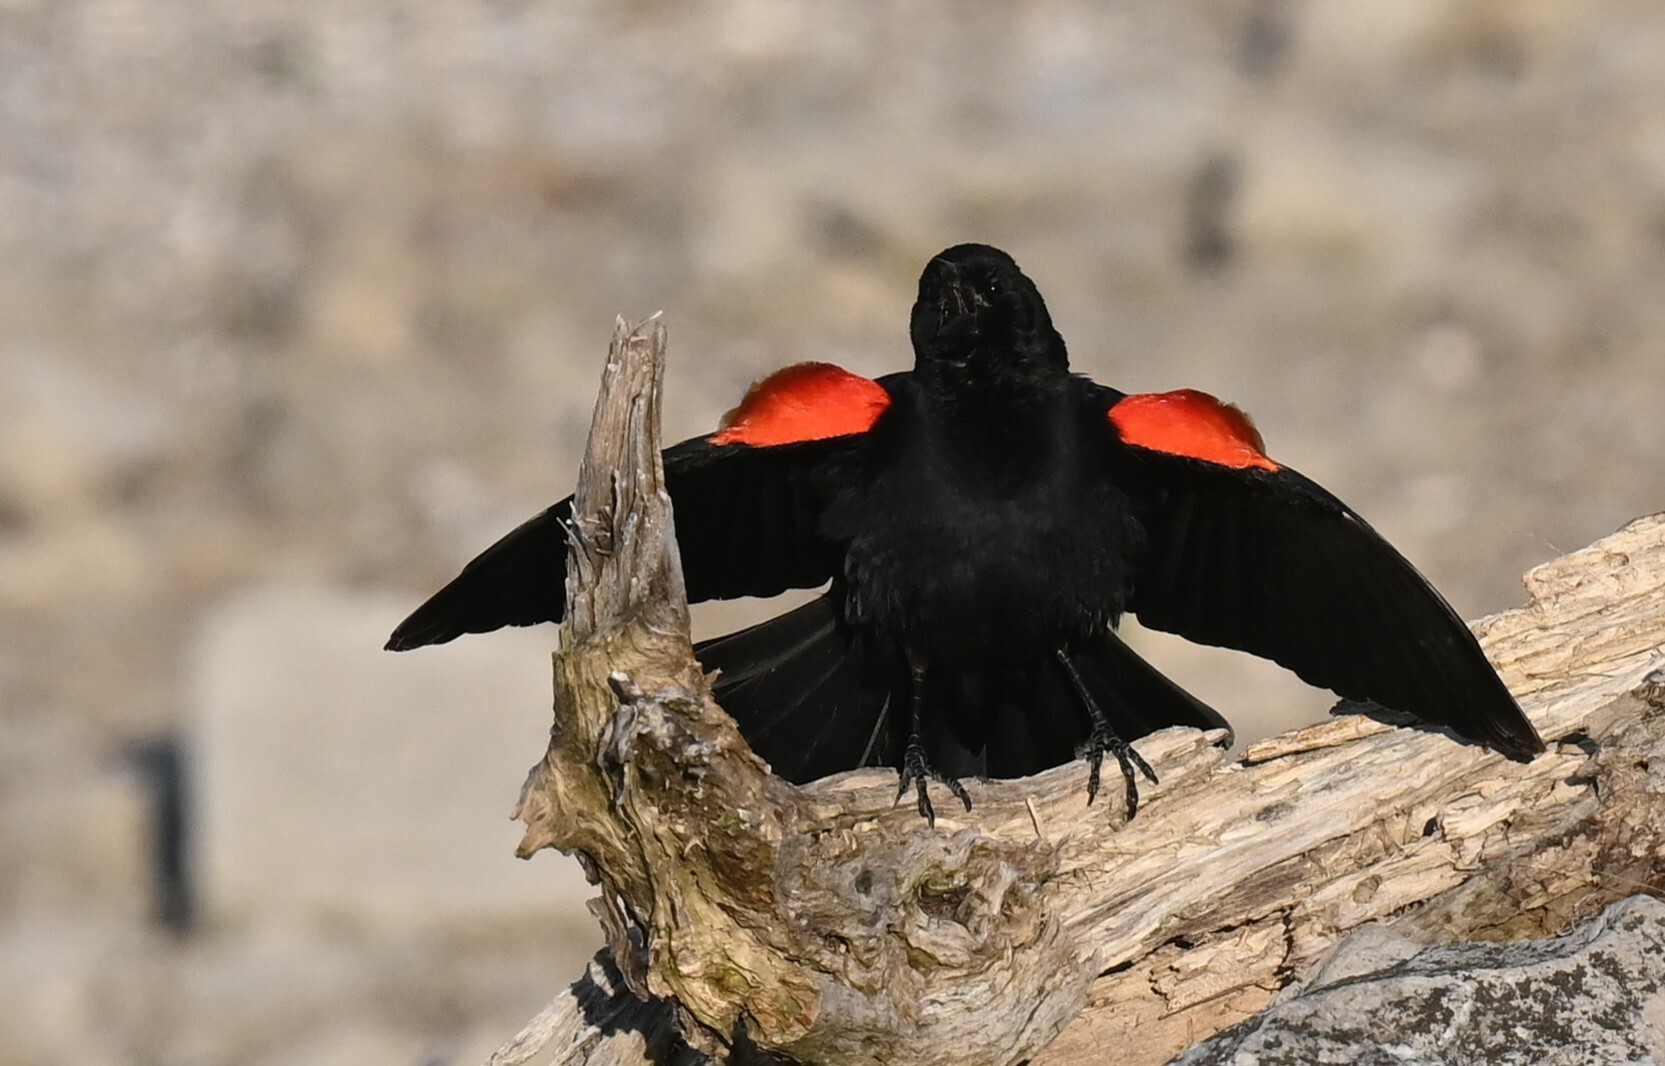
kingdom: Animalia
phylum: Chordata
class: Aves
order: Passeriformes
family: Icteridae
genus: Agelaius
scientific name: Agelaius phoeniceus
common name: Red-winged blackbird
